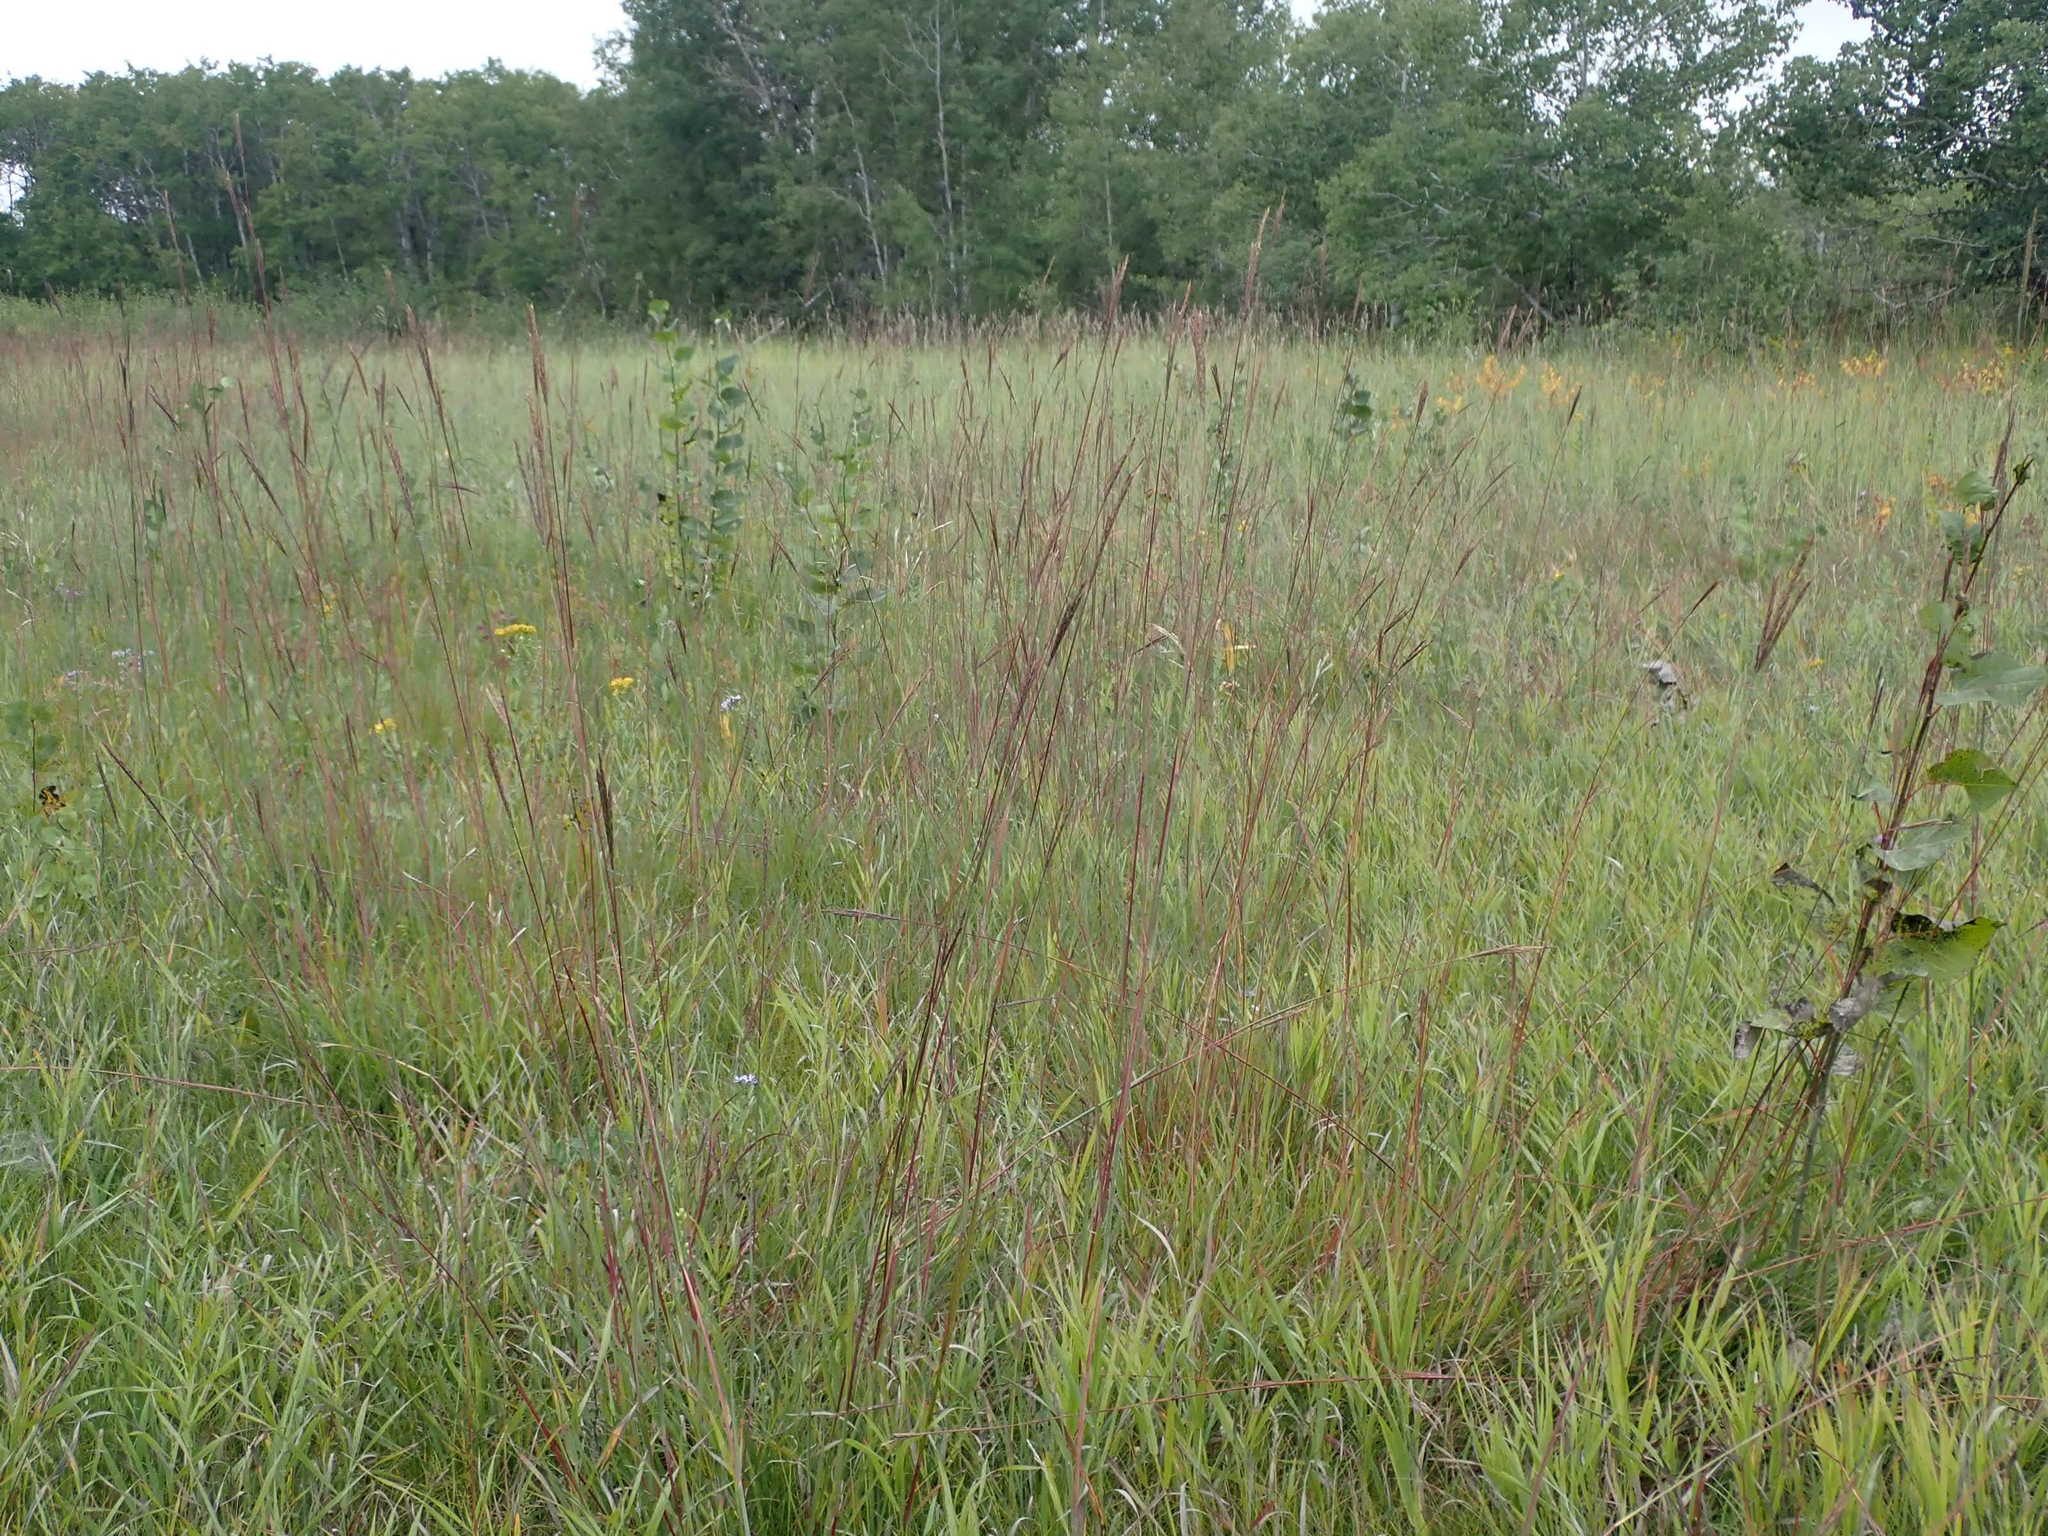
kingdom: Plantae
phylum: Tracheophyta
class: Liliopsida
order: Poales
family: Poaceae
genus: Andropogon
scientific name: Andropogon gerardi
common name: Big bluestem
